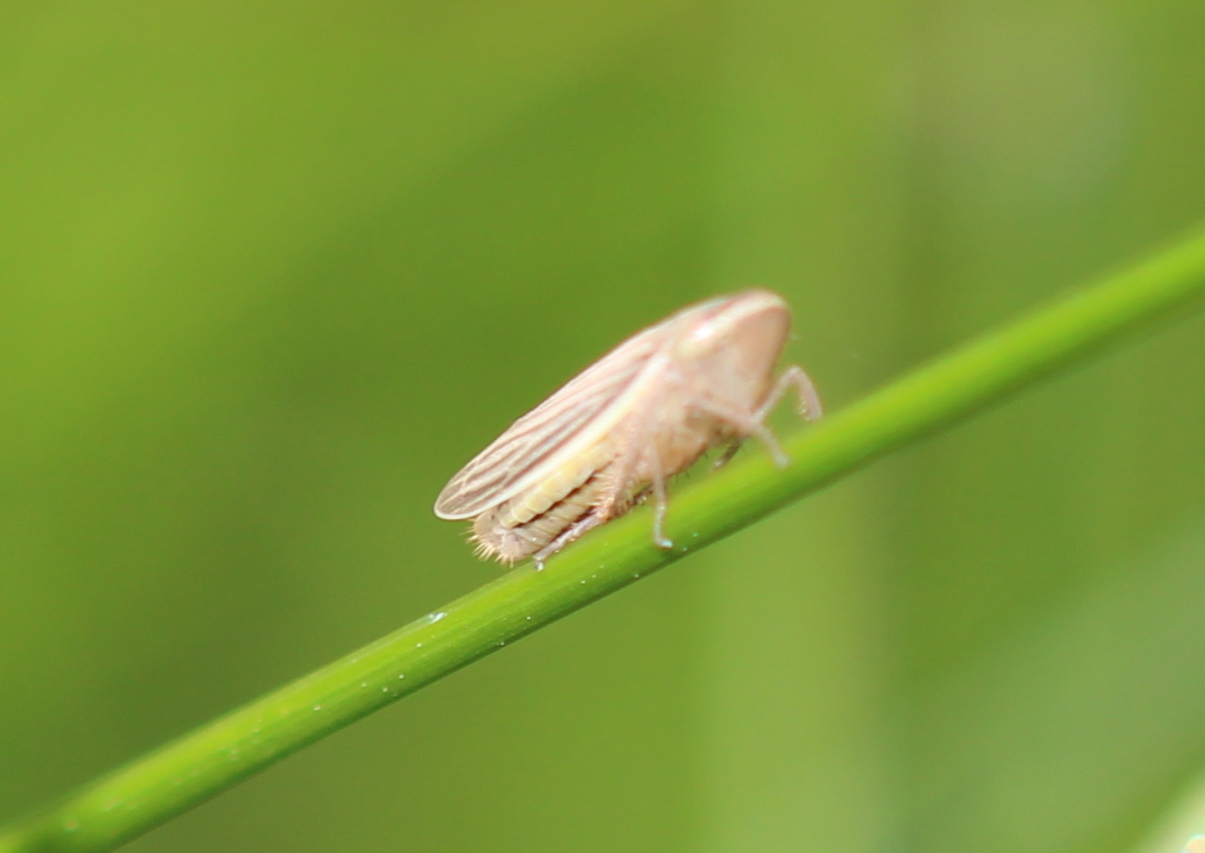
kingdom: Animalia
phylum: Arthropoda
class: Insecta
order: Hemiptera
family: Cicadellidae
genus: Athysanus
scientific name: Athysanus argentarius
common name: Silver leafhopper
